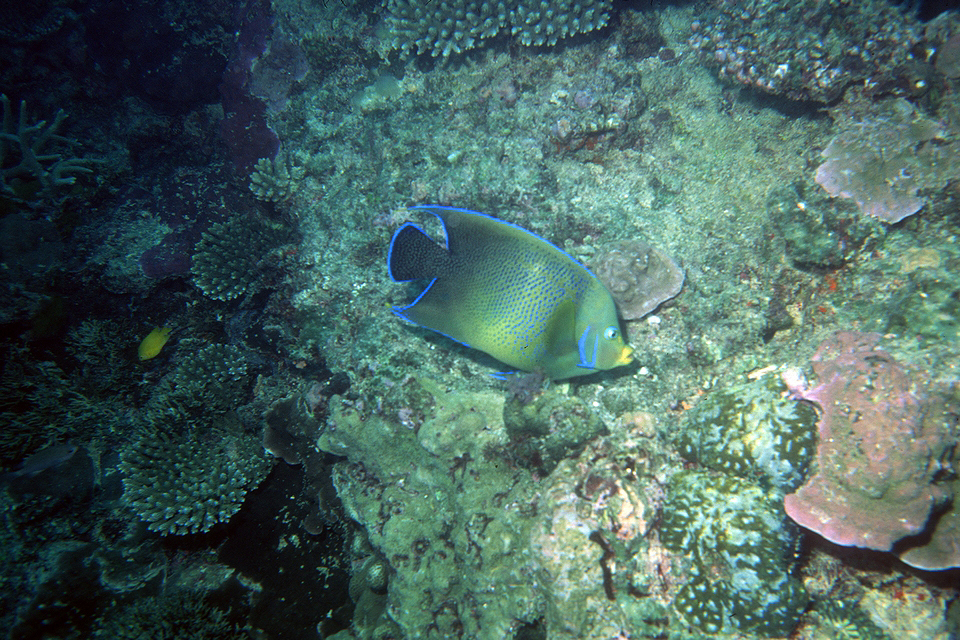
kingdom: Animalia
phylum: Chordata
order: Perciformes
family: Pomacanthidae
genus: Pomacanthus
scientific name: Pomacanthus semicirculatus
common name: Semicircle angelfish
